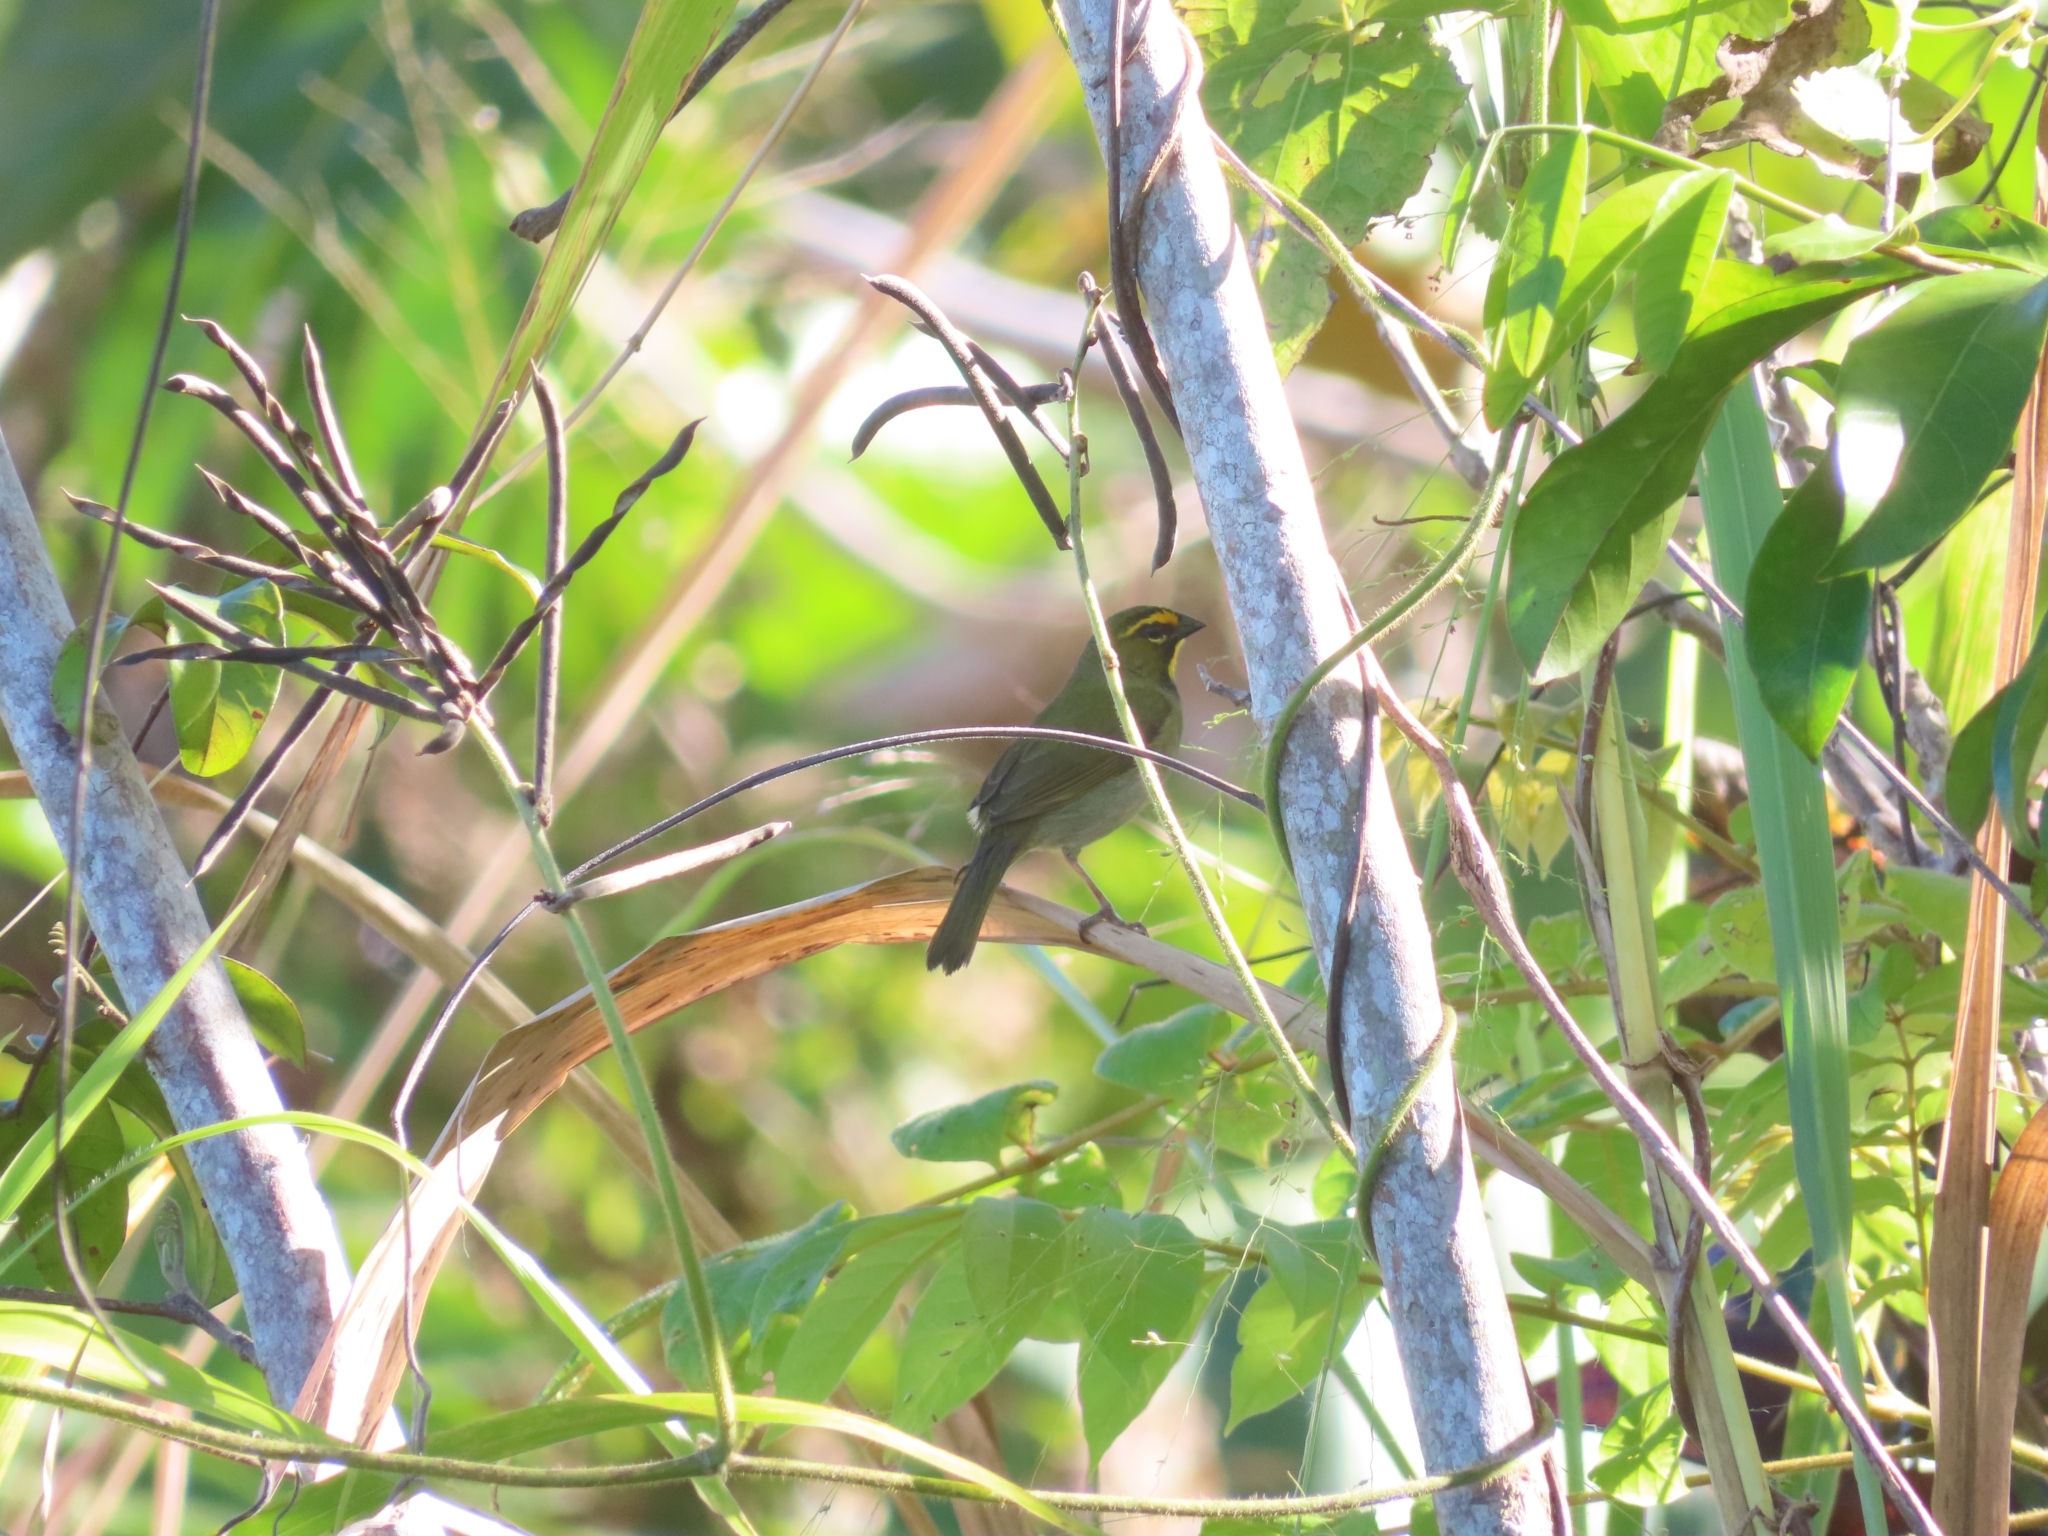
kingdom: Animalia
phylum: Chordata
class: Aves
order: Passeriformes
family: Thraupidae
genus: Tiaris
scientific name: Tiaris olivaceus
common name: Yellow-faced grassquit
